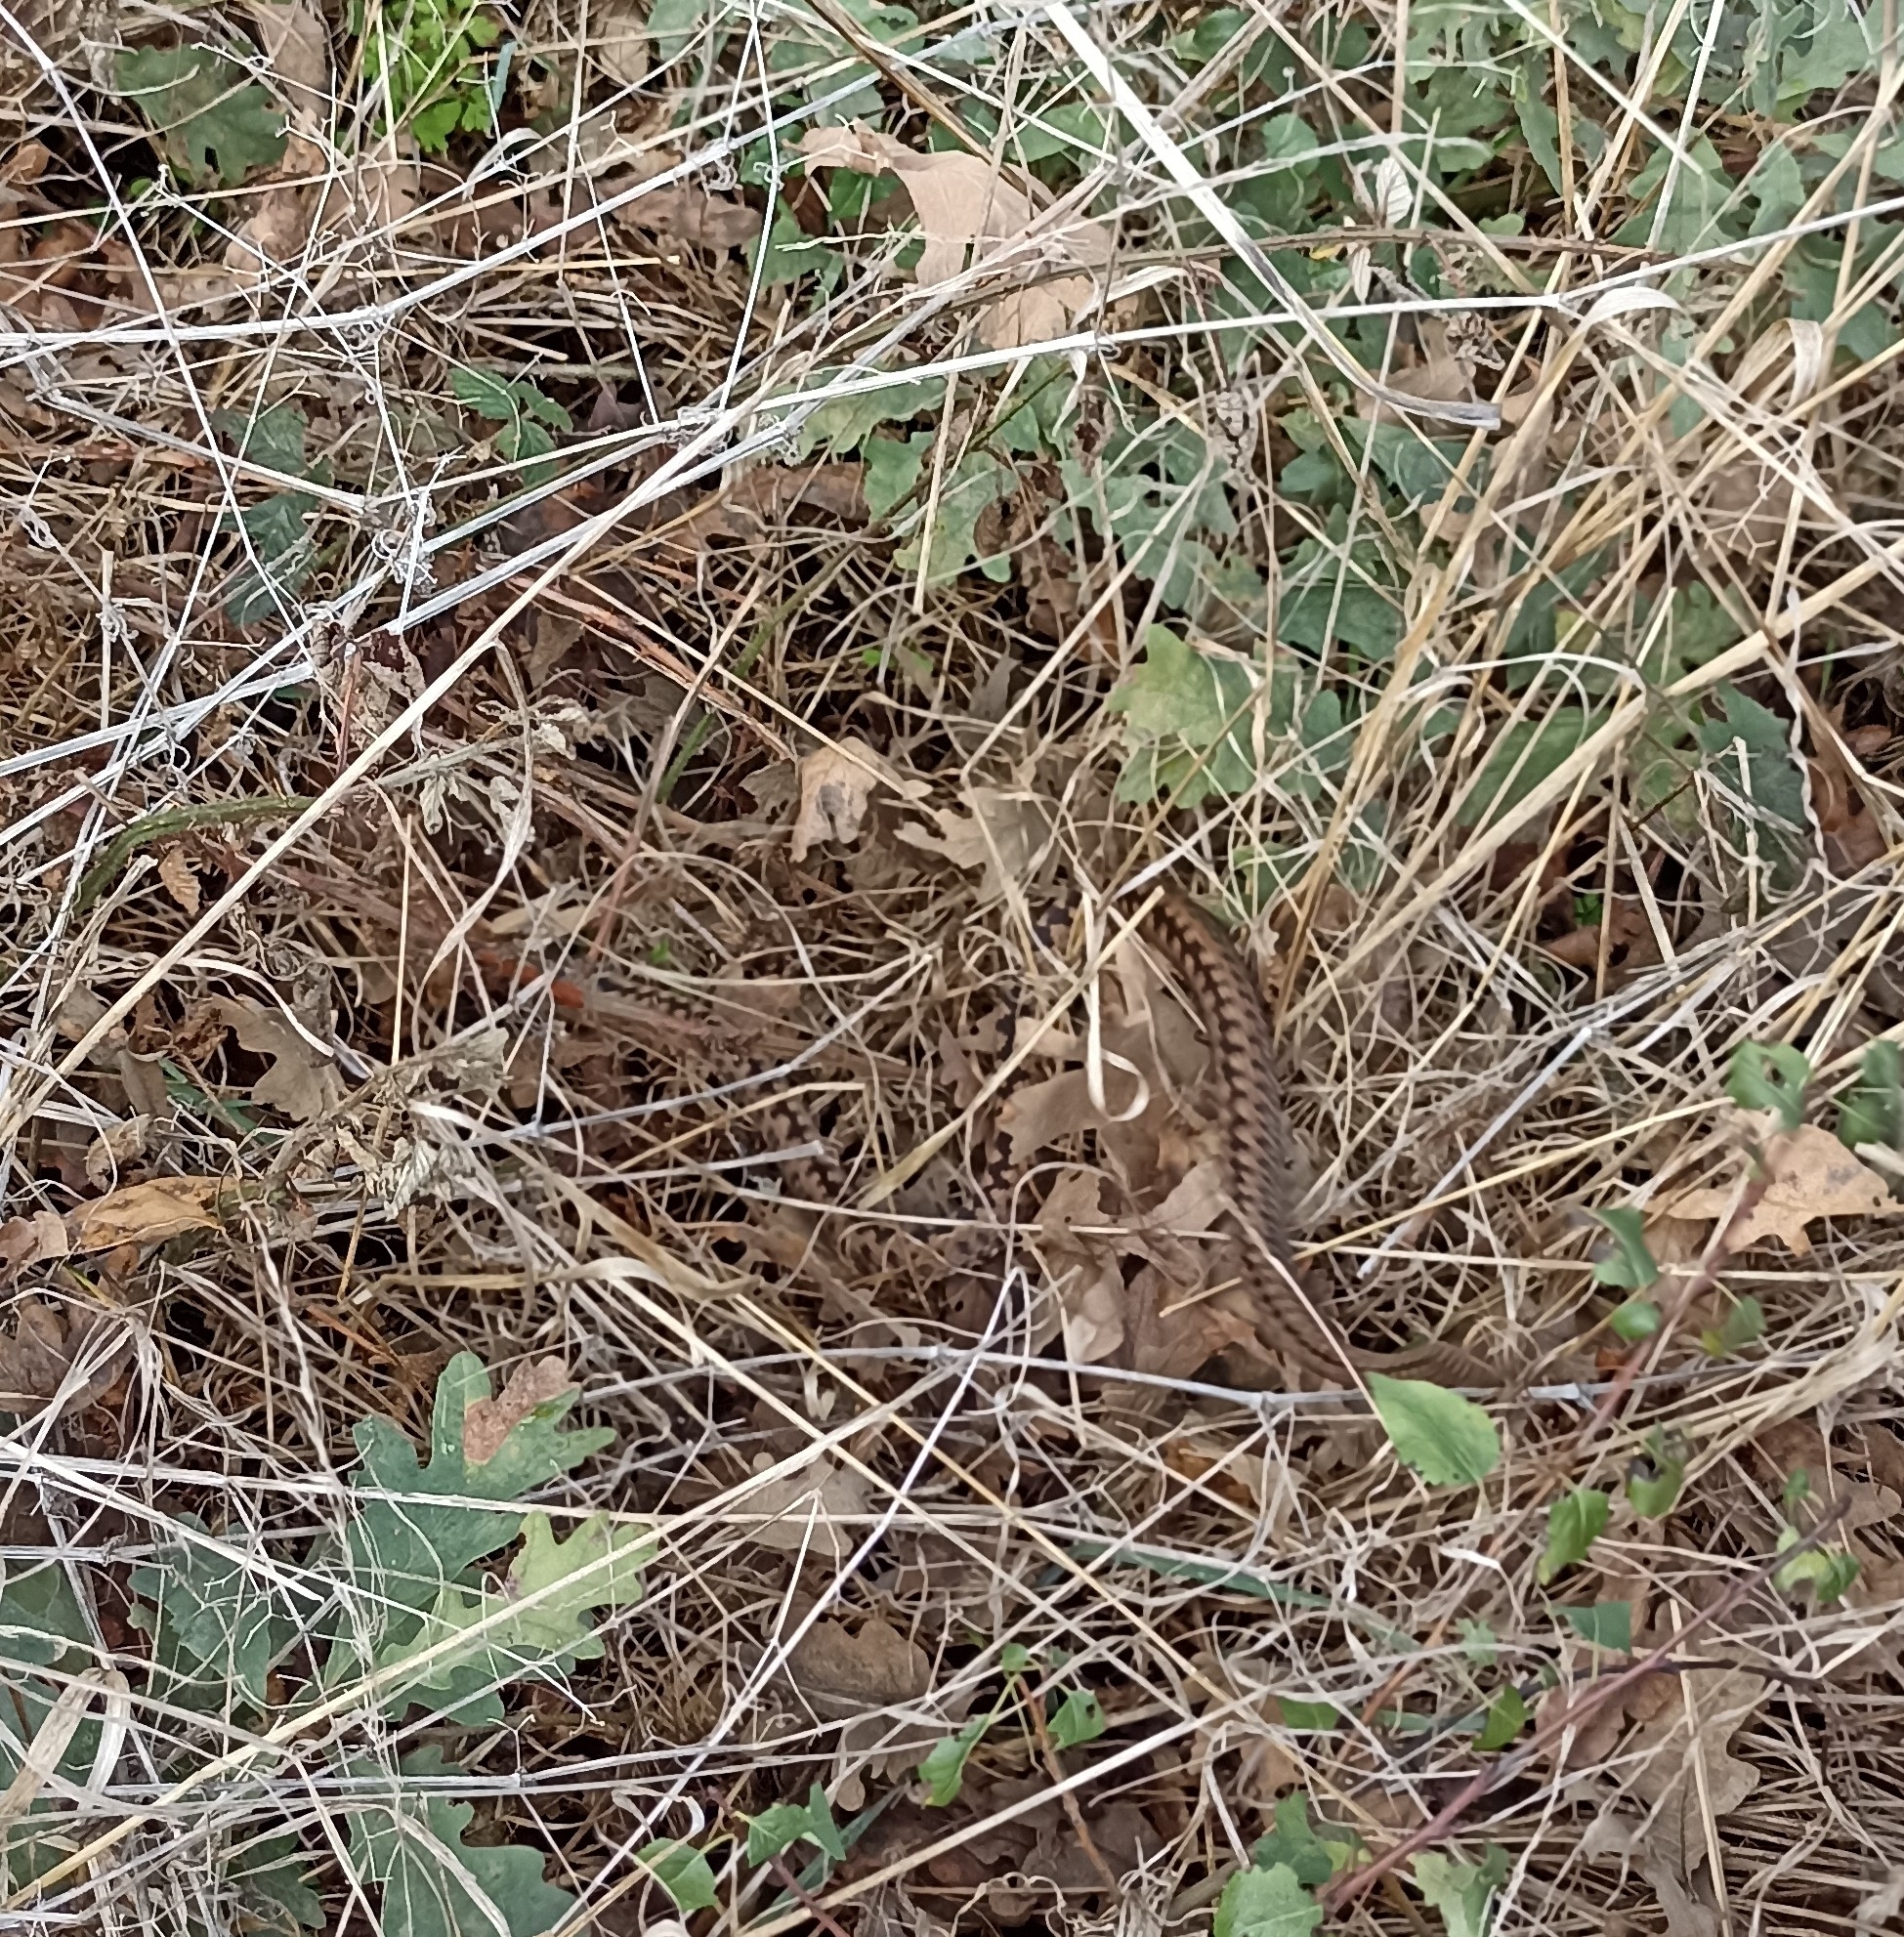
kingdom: Animalia
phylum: Chordata
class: Squamata
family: Viperidae
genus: Vipera
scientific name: Vipera berus
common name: Adder
